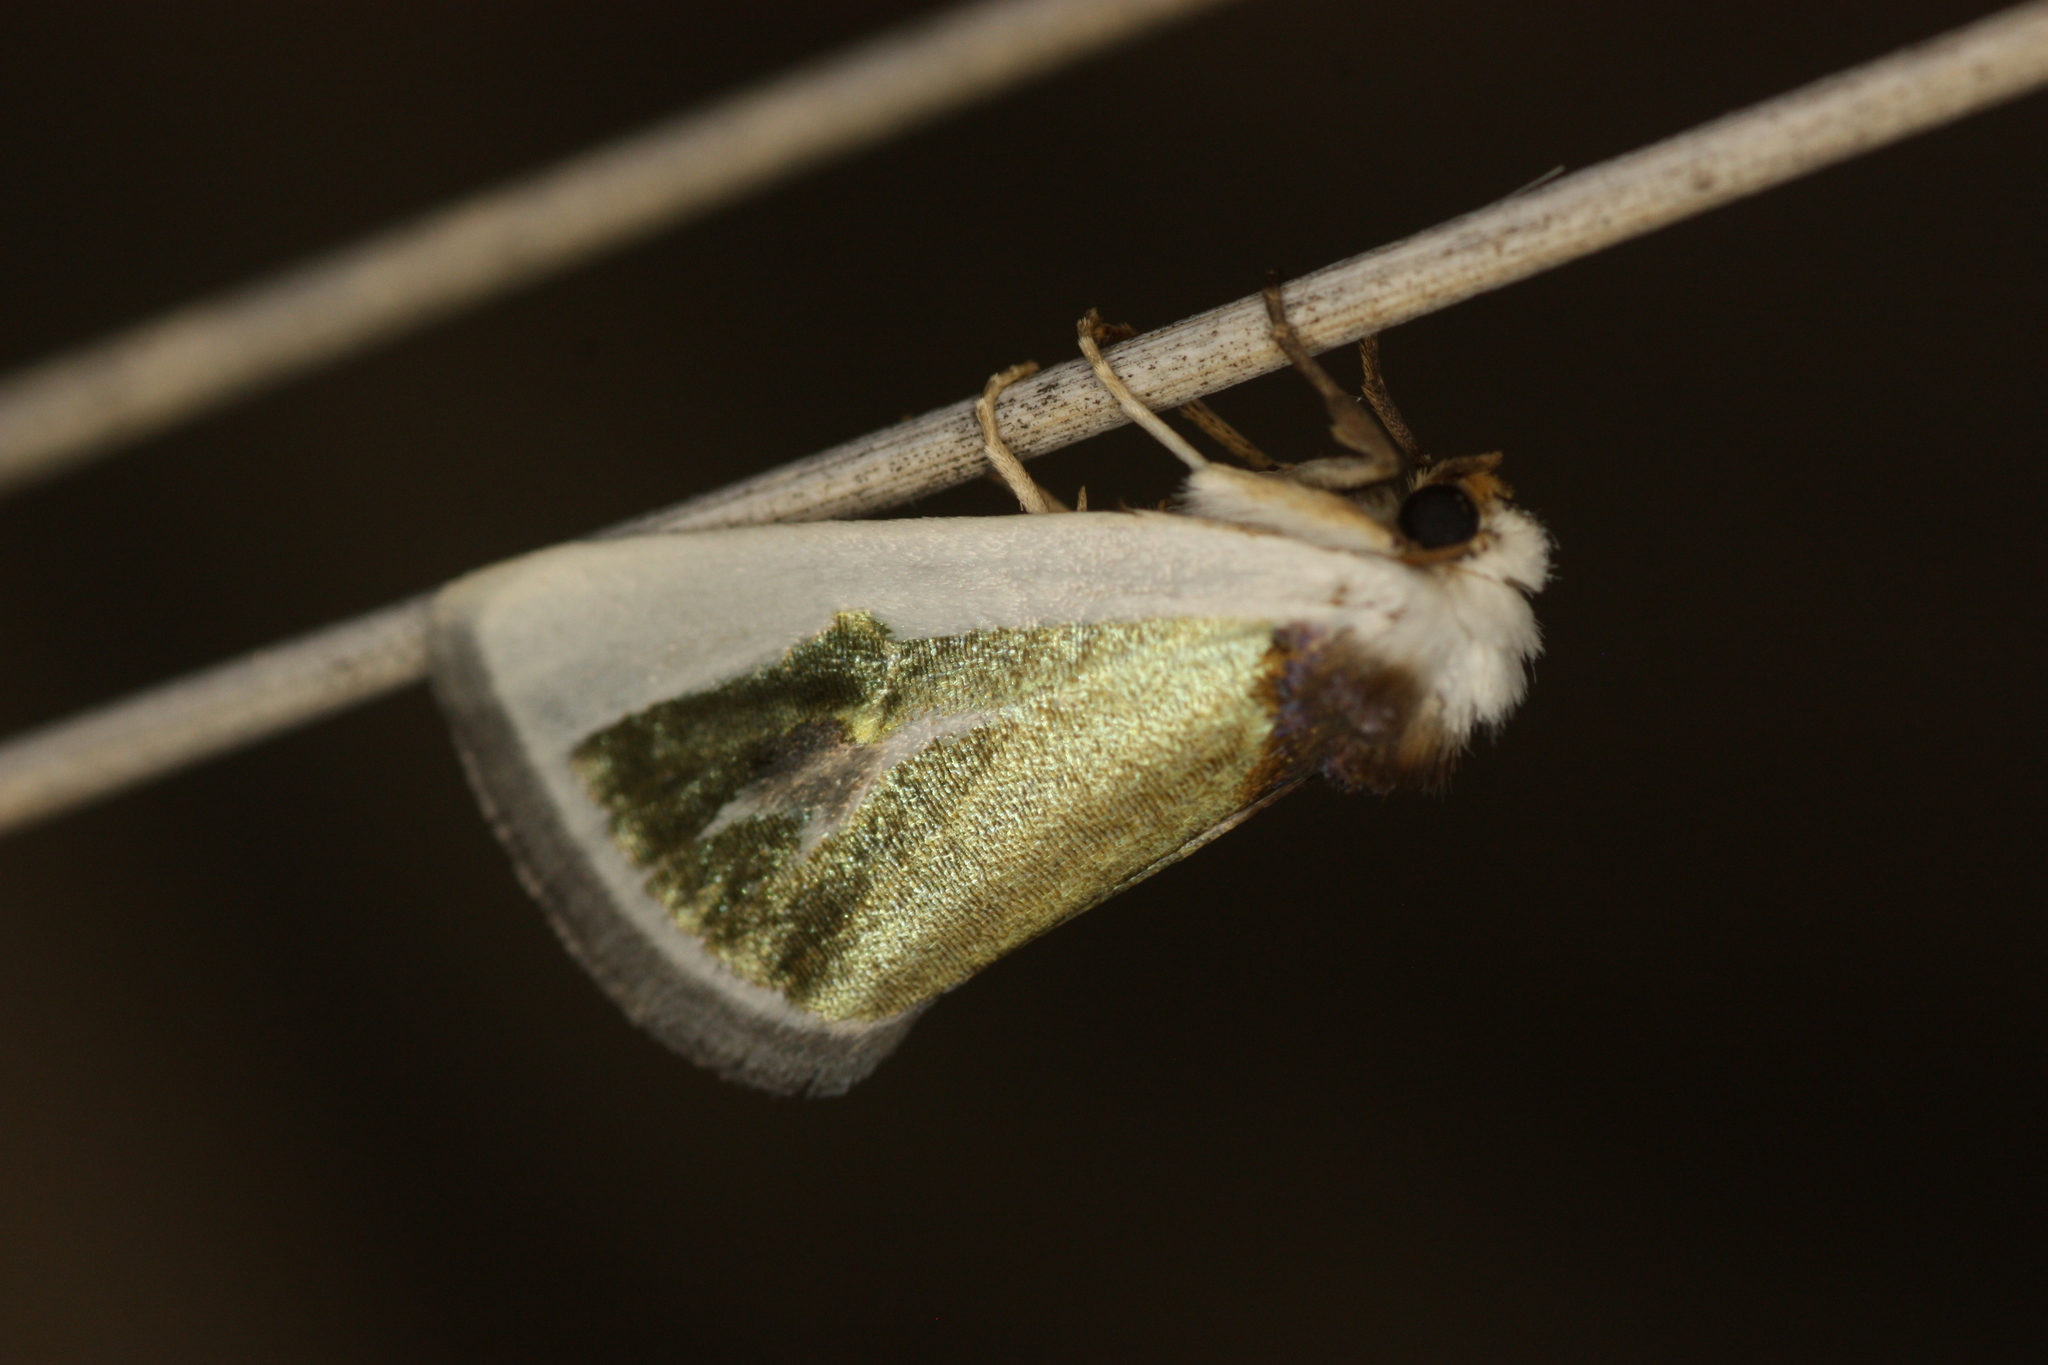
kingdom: Animalia
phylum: Arthropoda
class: Insecta
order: Lepidoptera
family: Noctuidae
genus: Neumoegenia
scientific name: Neumoegenia poetica
